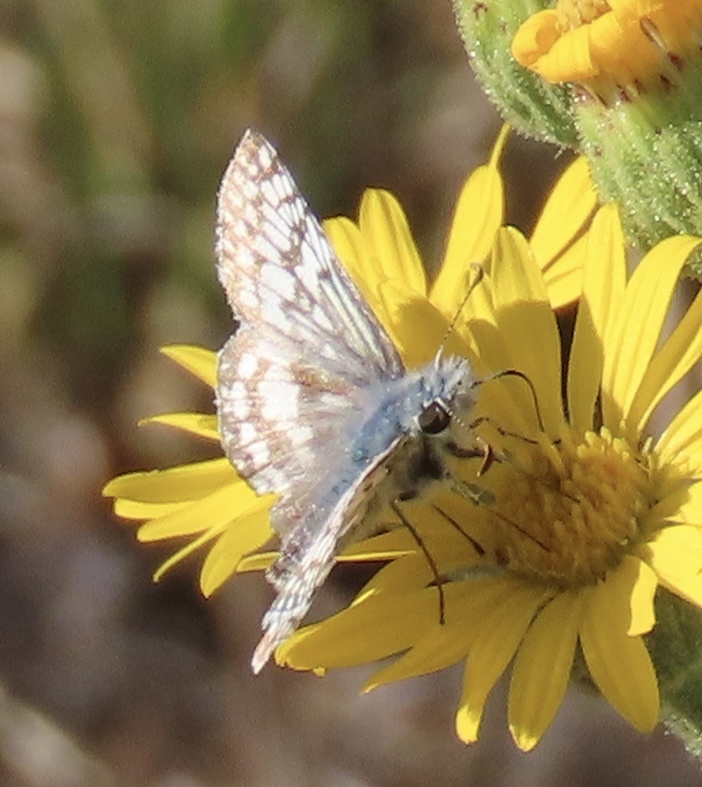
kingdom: Animalia
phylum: Arthropoda
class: Insecta
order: Lepidoptera
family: Hesperiidae
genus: Burnsius
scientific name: Burnsius communis
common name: Common checkered-skipper
